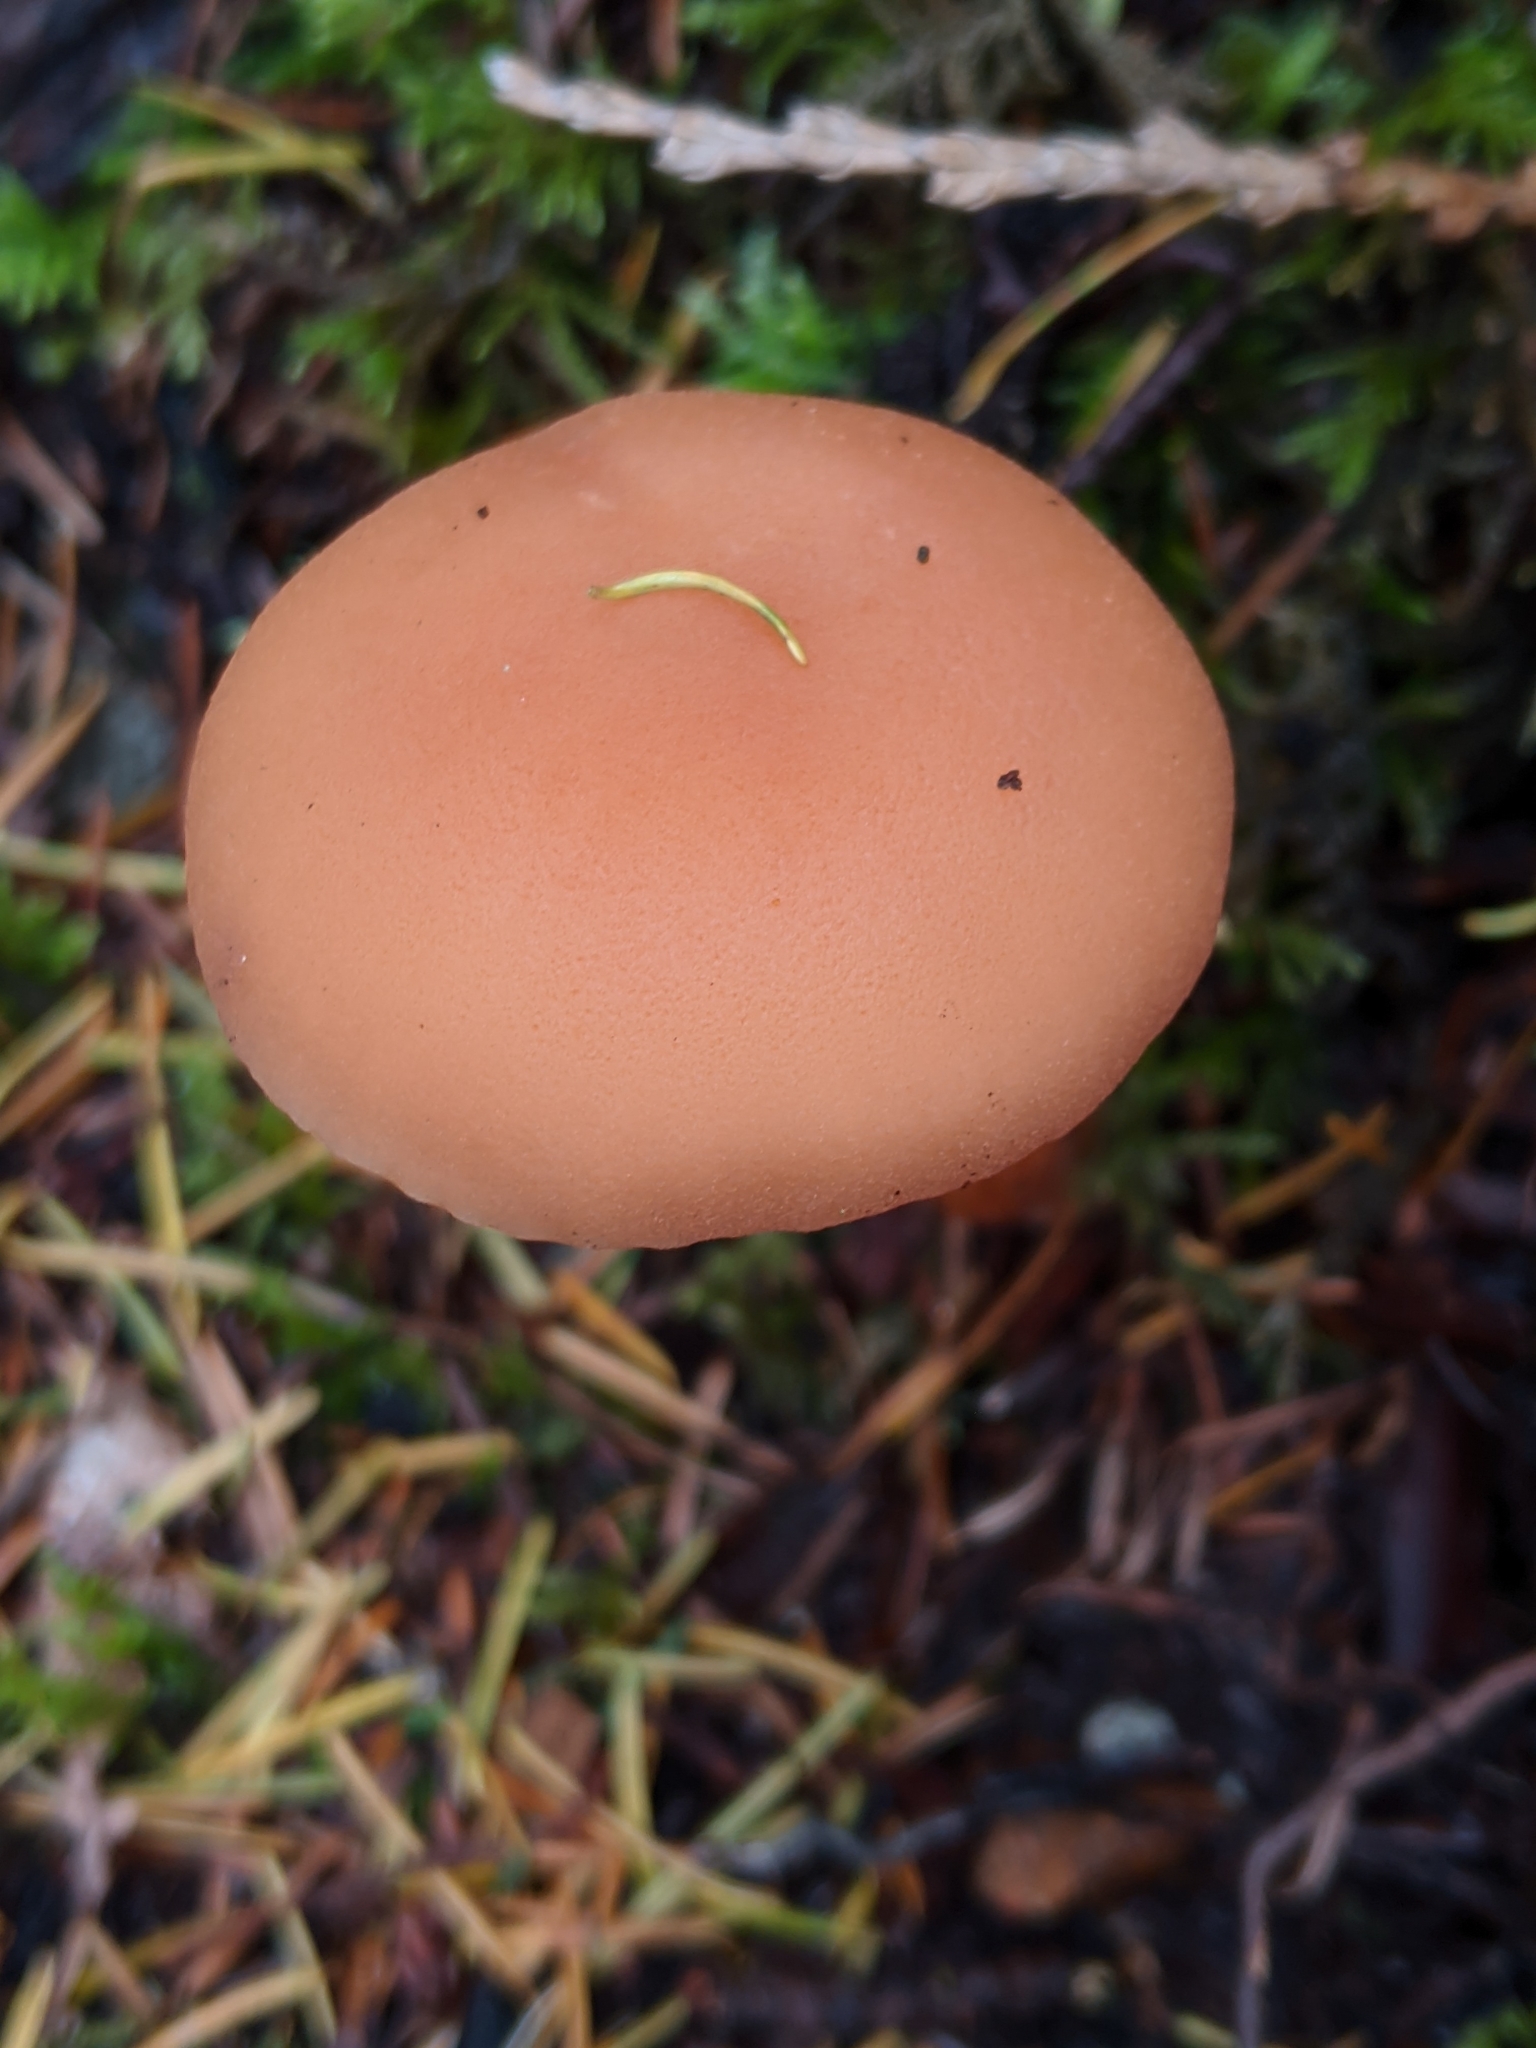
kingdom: Fungi
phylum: Basidiomycota
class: Agaricomycetes
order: Agaricales
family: Hydnangiaceae
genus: Laccaria
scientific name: Laccaria laccata
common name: Deceiver
